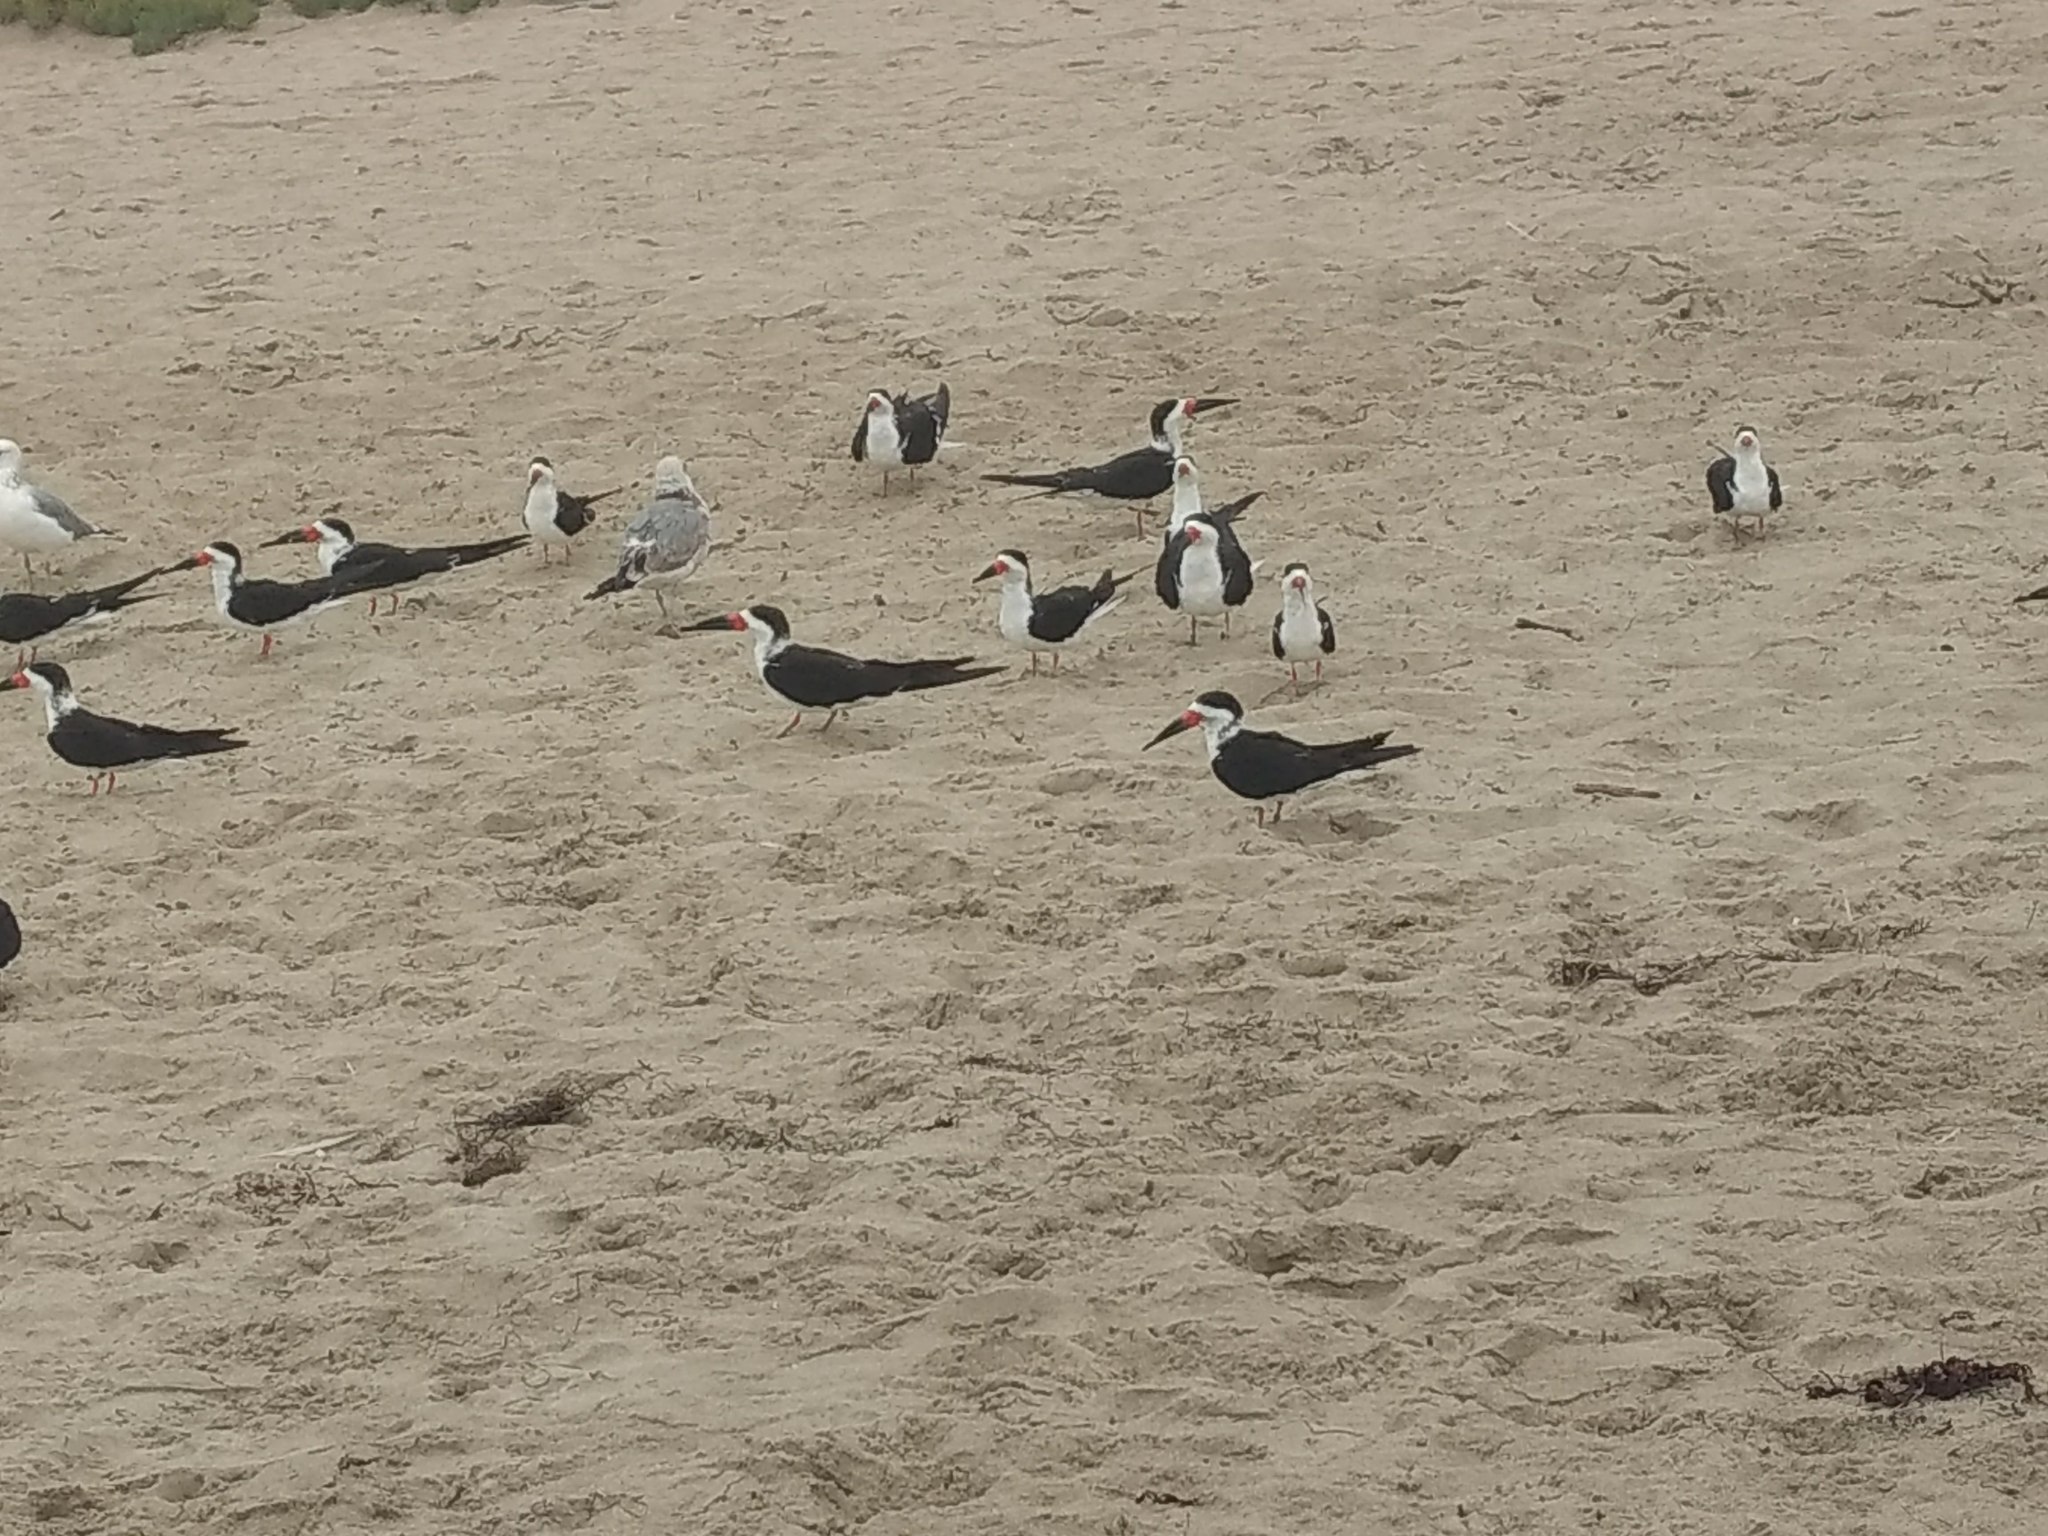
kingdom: Animalia
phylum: Chordata
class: Aves
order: Charadriiformes
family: Laridae
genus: Rynchops
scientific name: Rynchops niger
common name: Black skimmer
